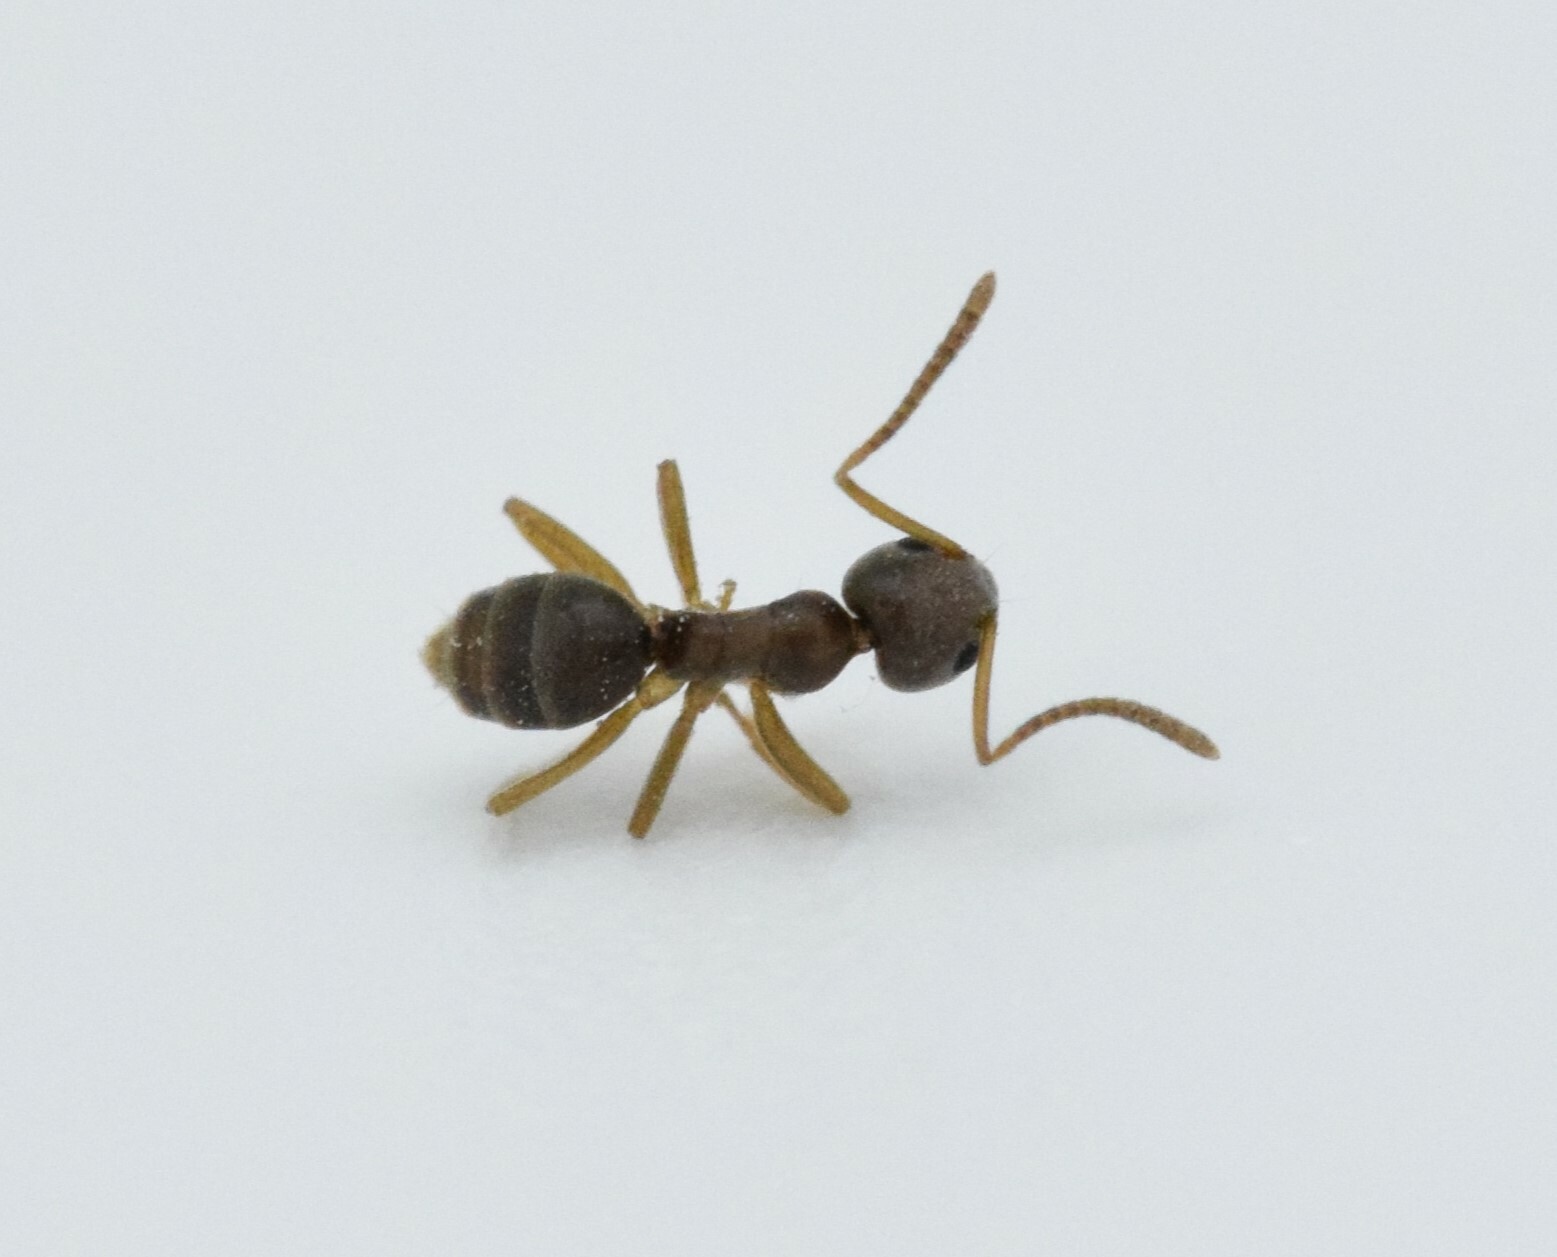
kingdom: Animalia
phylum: Arthropoda
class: Insecta
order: Hymenoptera
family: Formicidae
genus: Tapinoma
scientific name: Tapinoma sessile
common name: Odorous house ant
